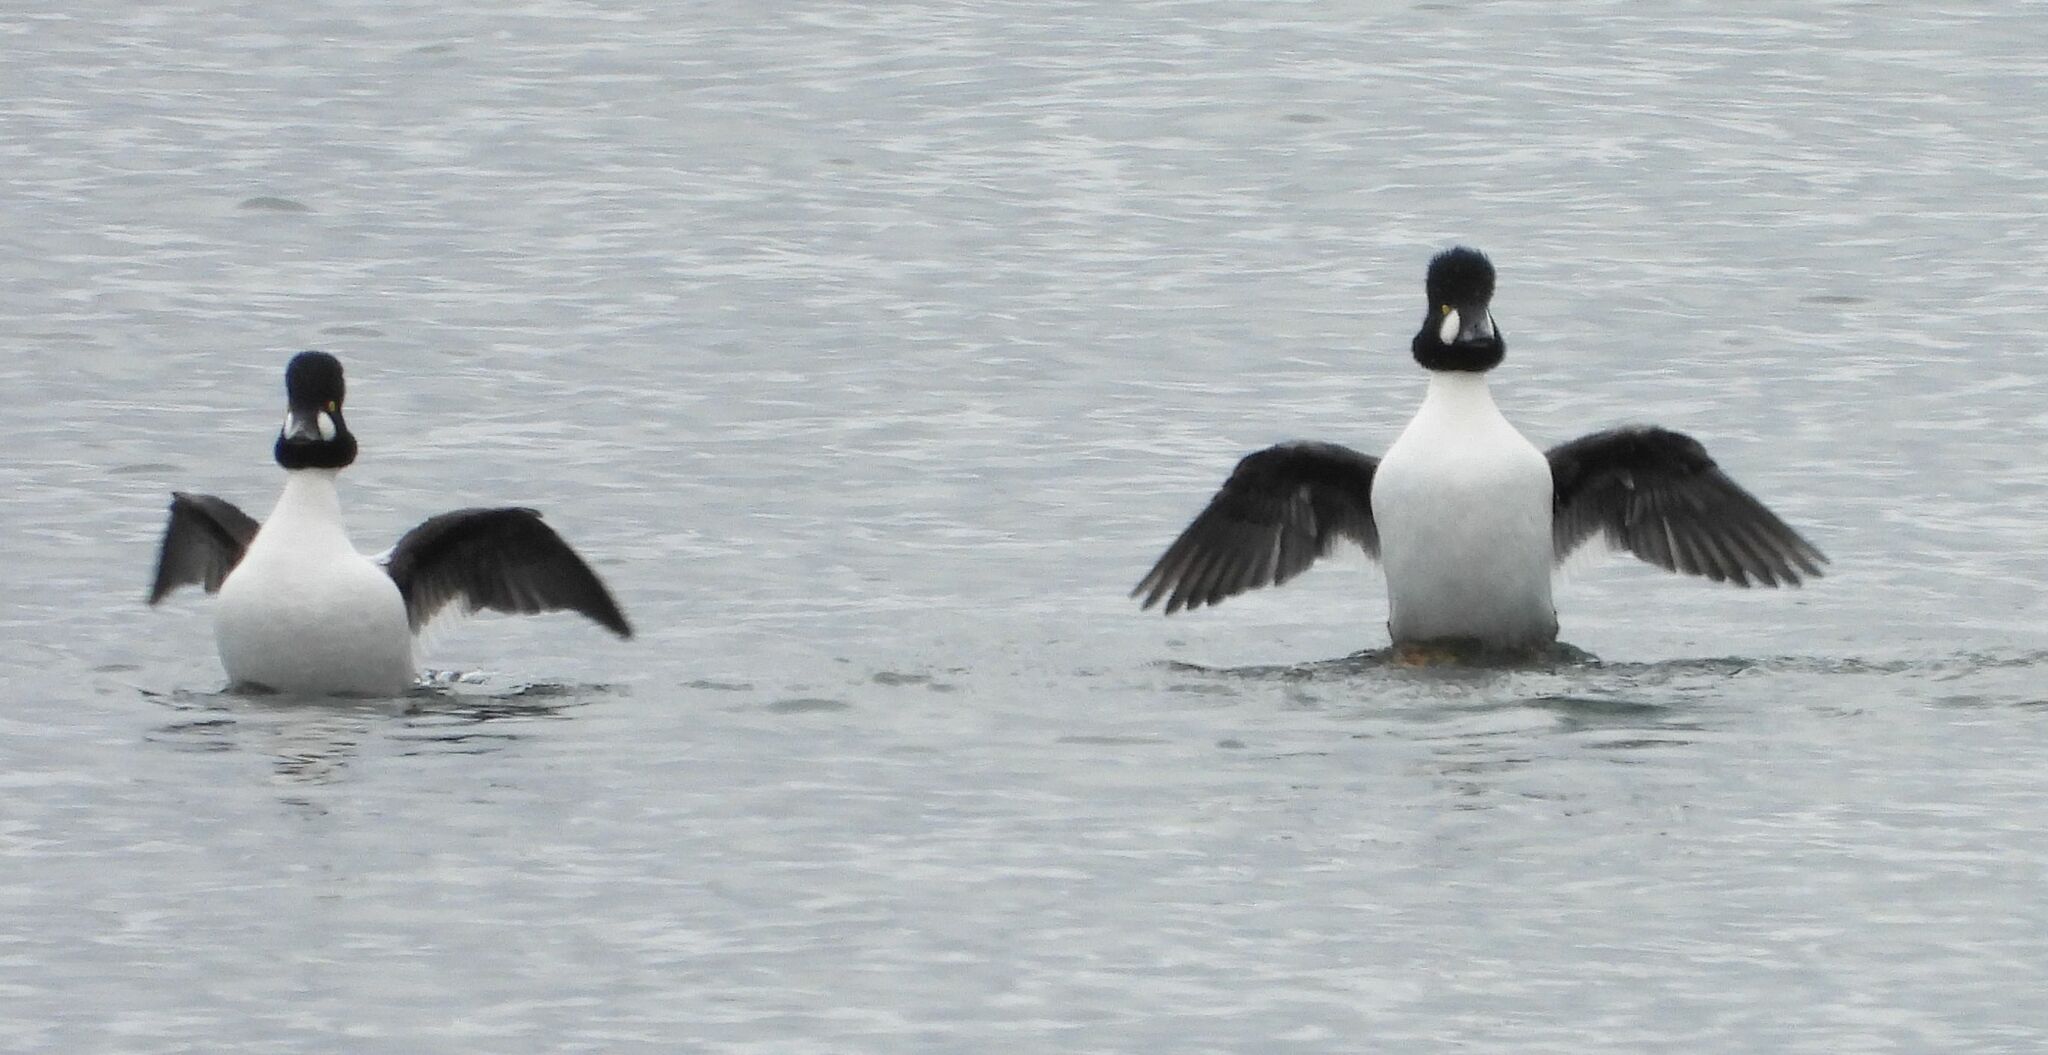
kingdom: Animalia
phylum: Chordata
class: Aves
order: Anseriformes
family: Anatidae
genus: Bucephala
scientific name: Bucephala clangula
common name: Common goldeneye
